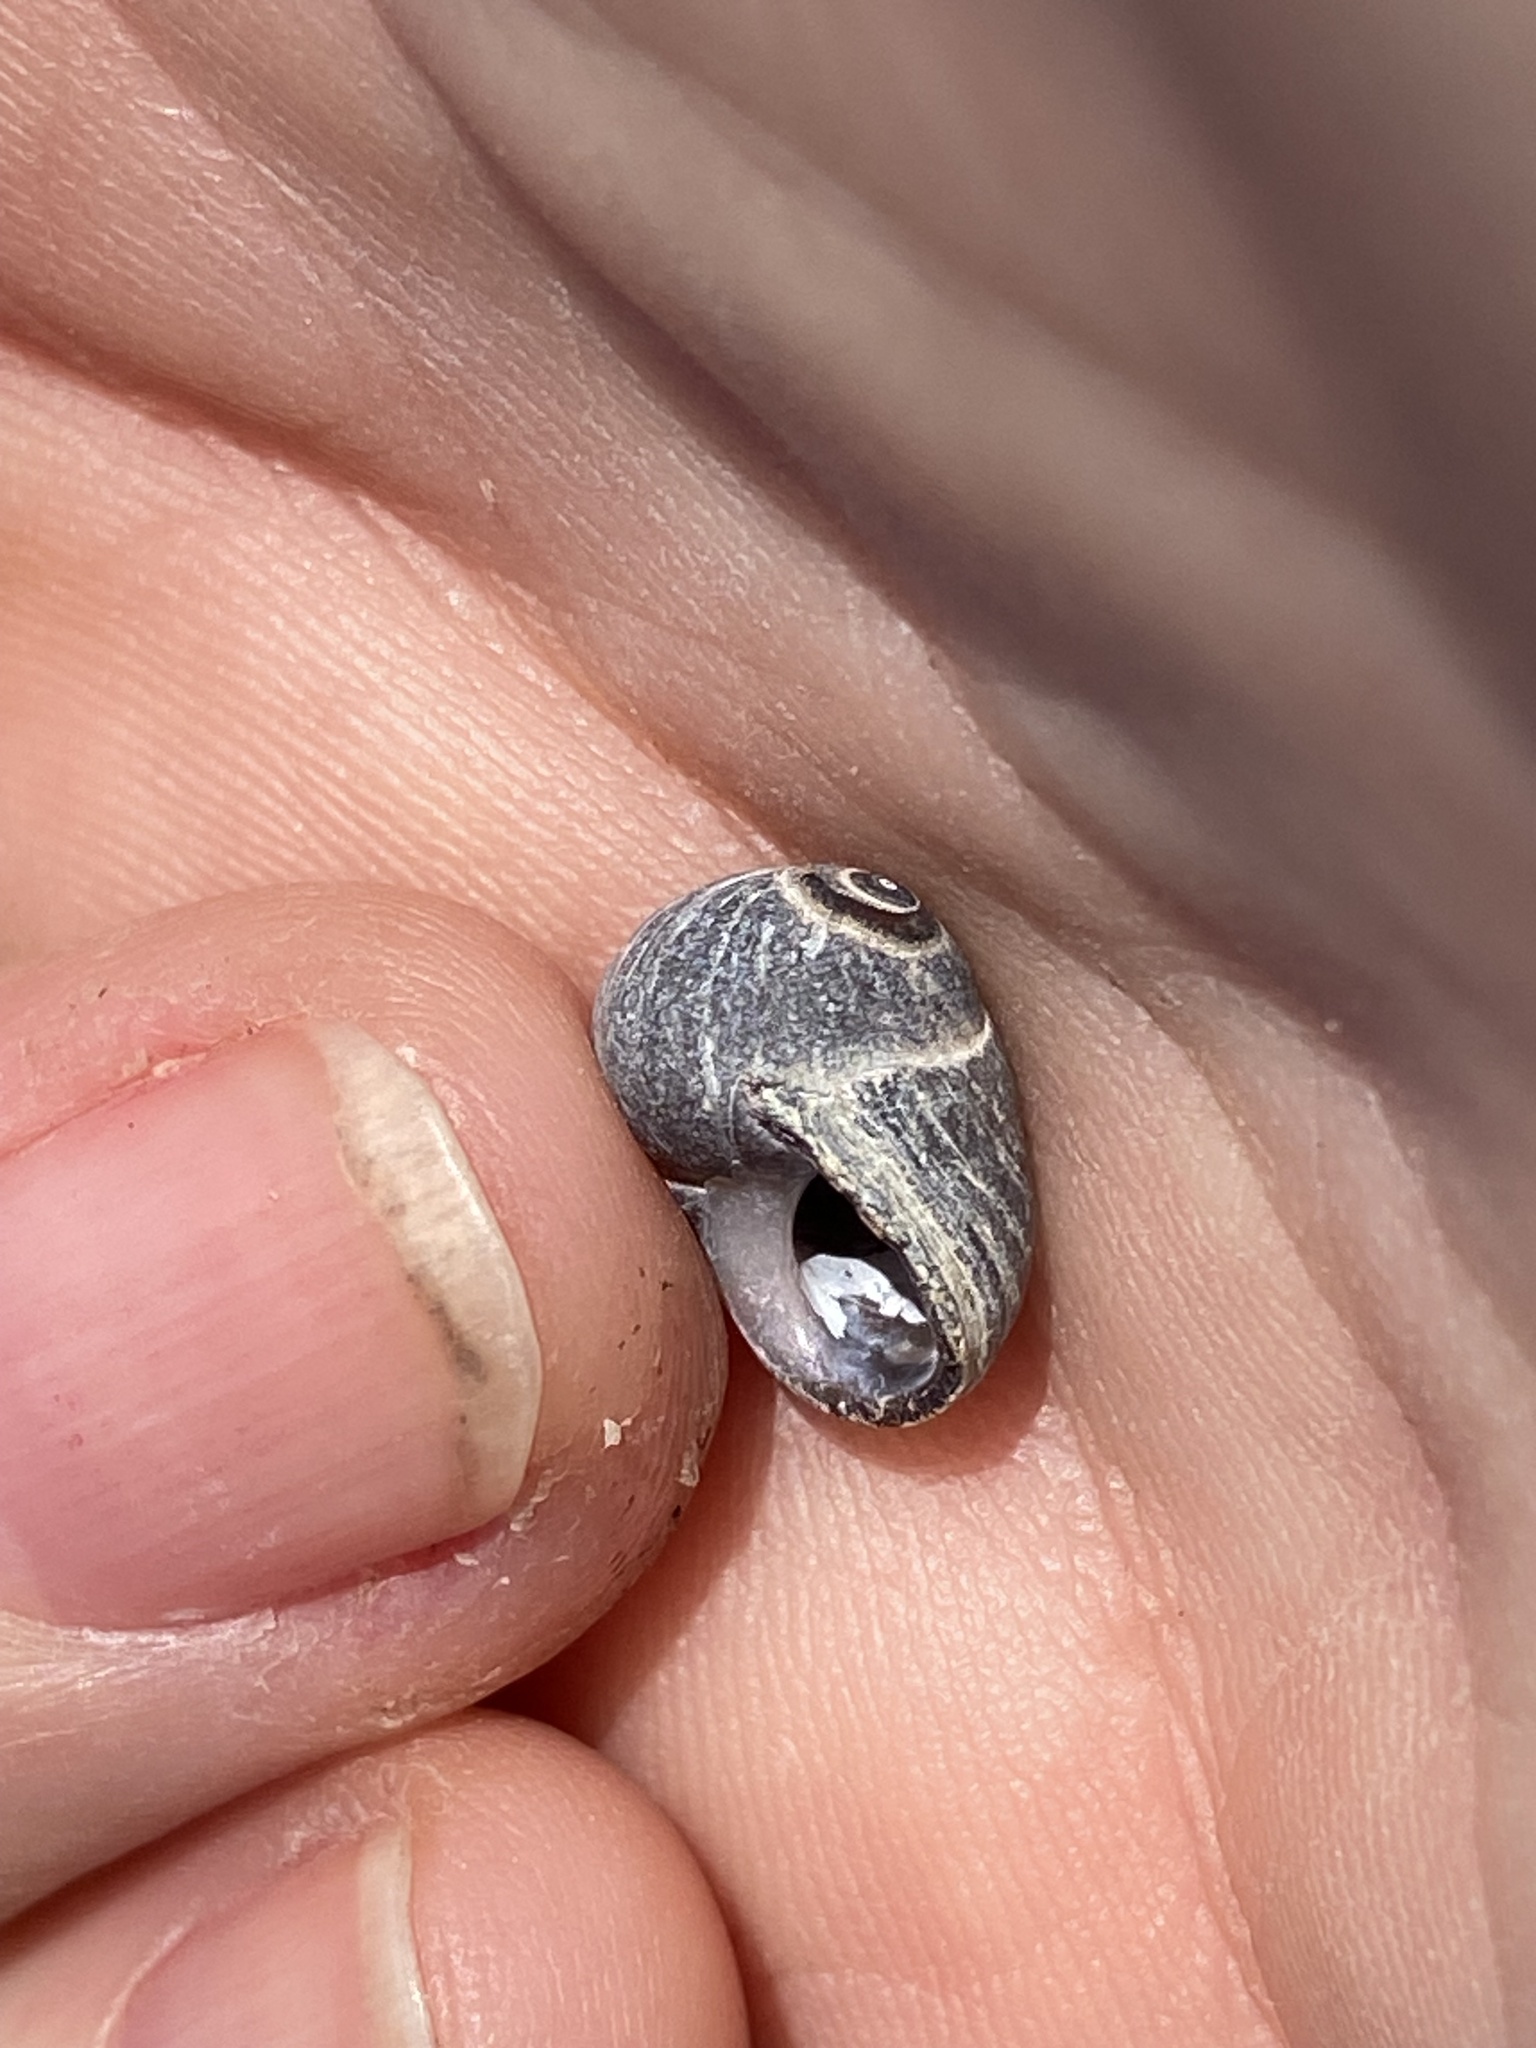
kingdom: Animalia
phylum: Mollusca
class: Gastropoda
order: Littorinimorpha
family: Littorinidae
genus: Littorina
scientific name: Littorina obtusata
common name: Flat periwinkle
